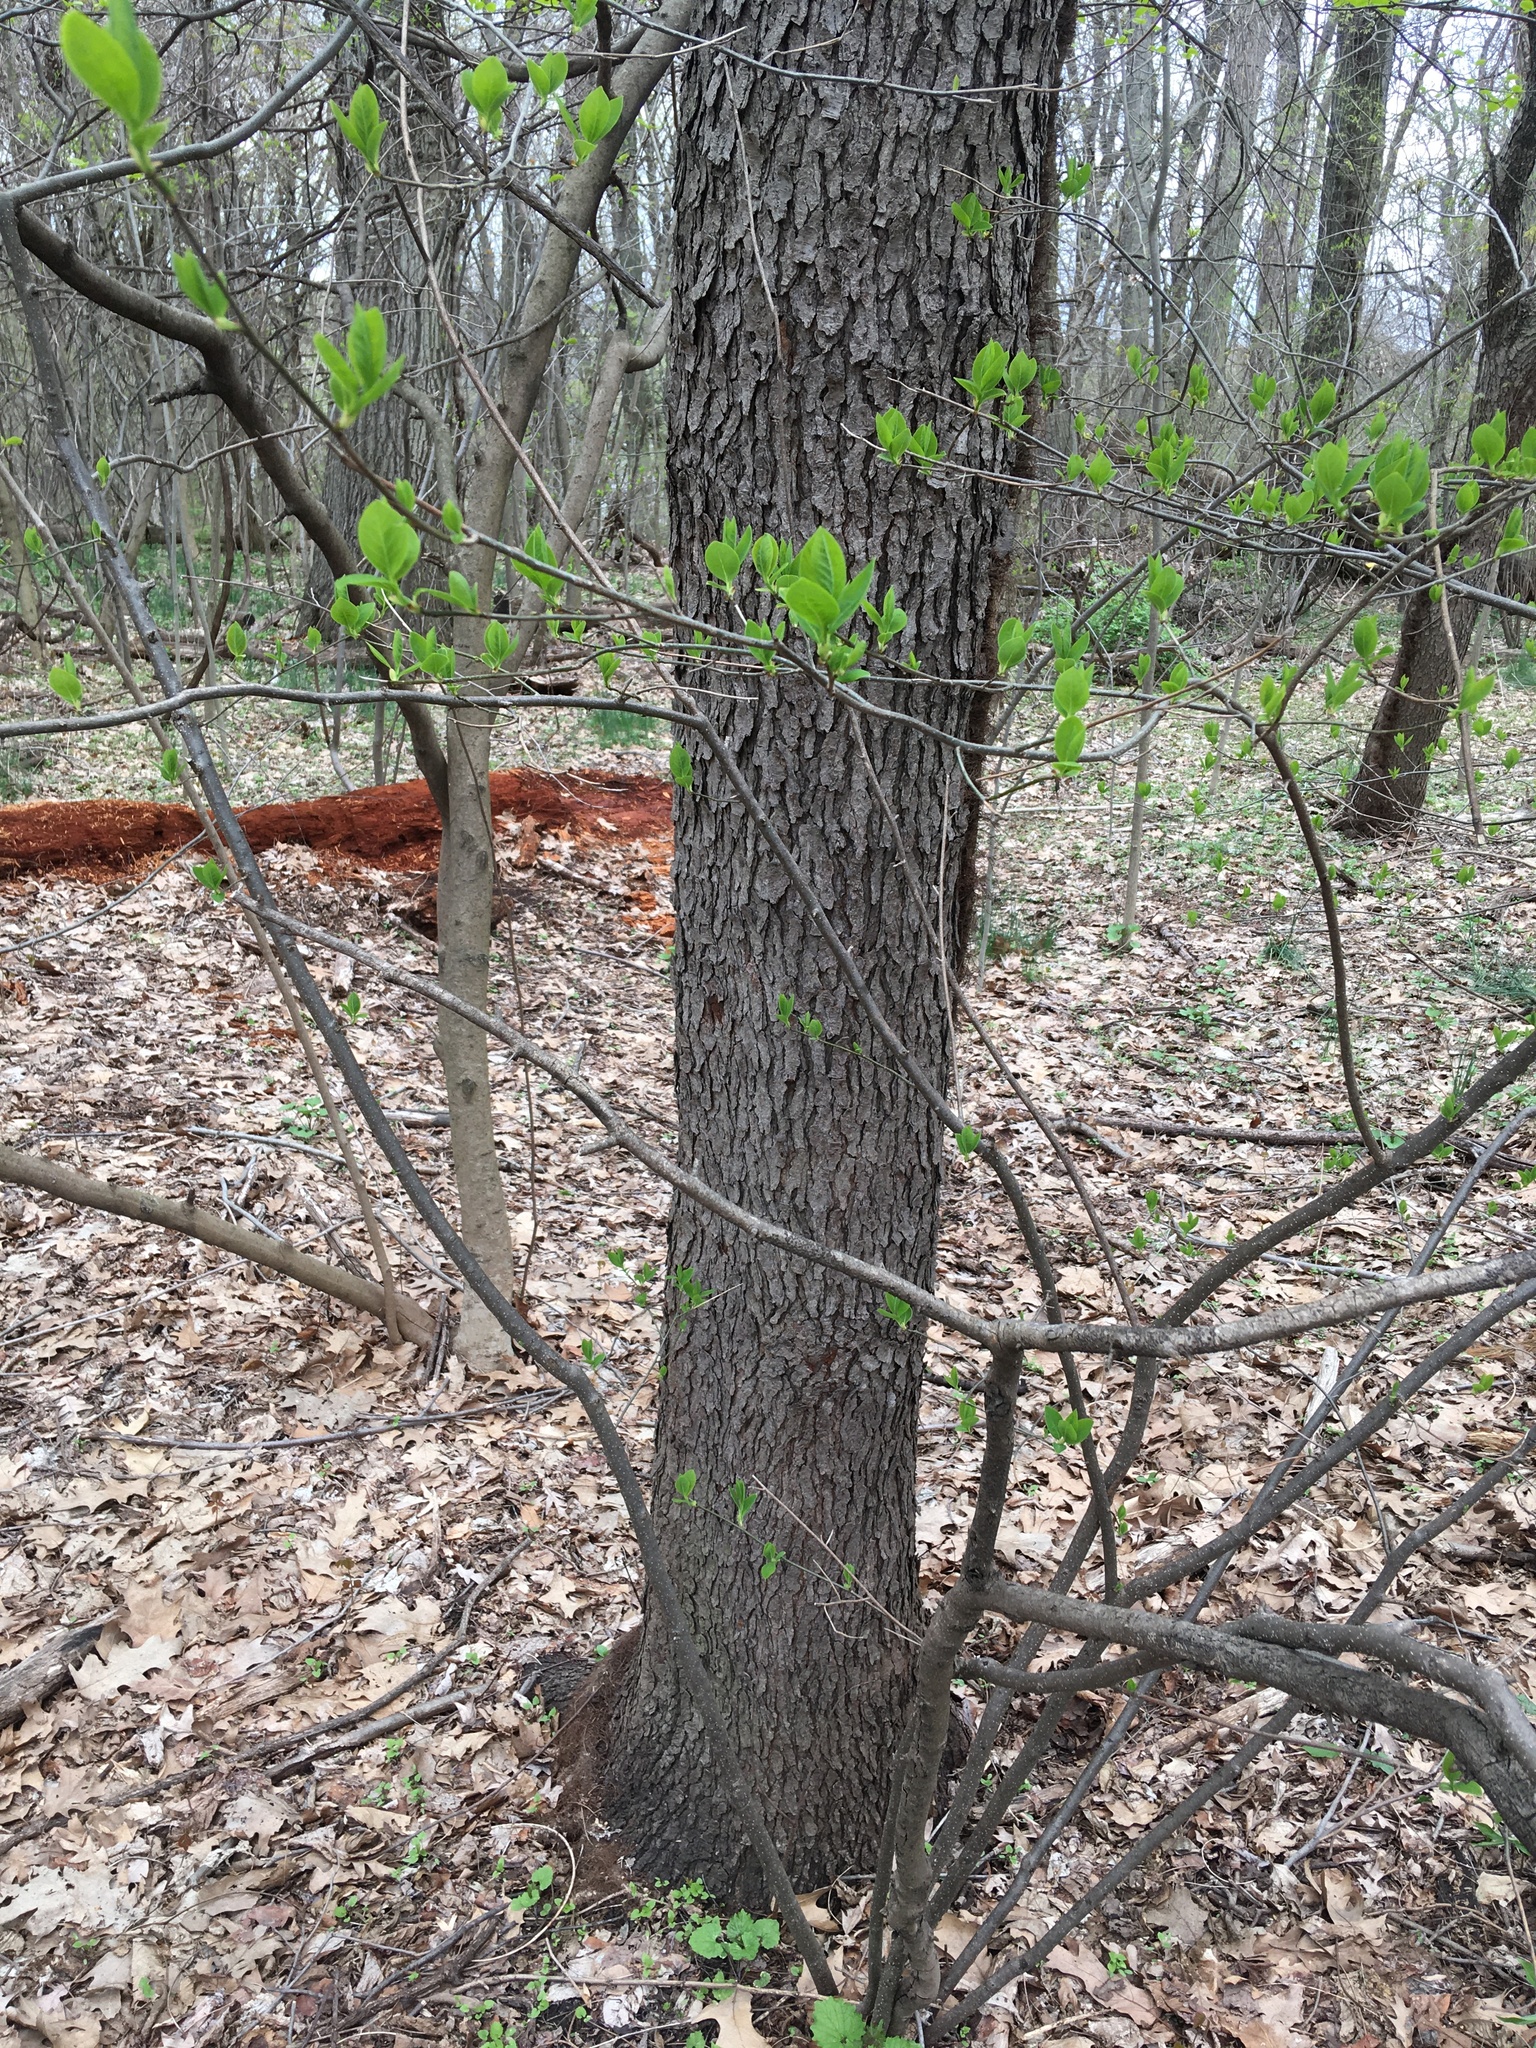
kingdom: Plantae
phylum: Tracheophyta
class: Magnoliopsida
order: Rosales
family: Rosaceae
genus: Prunus
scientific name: Prunus serotina
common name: Black cherry
